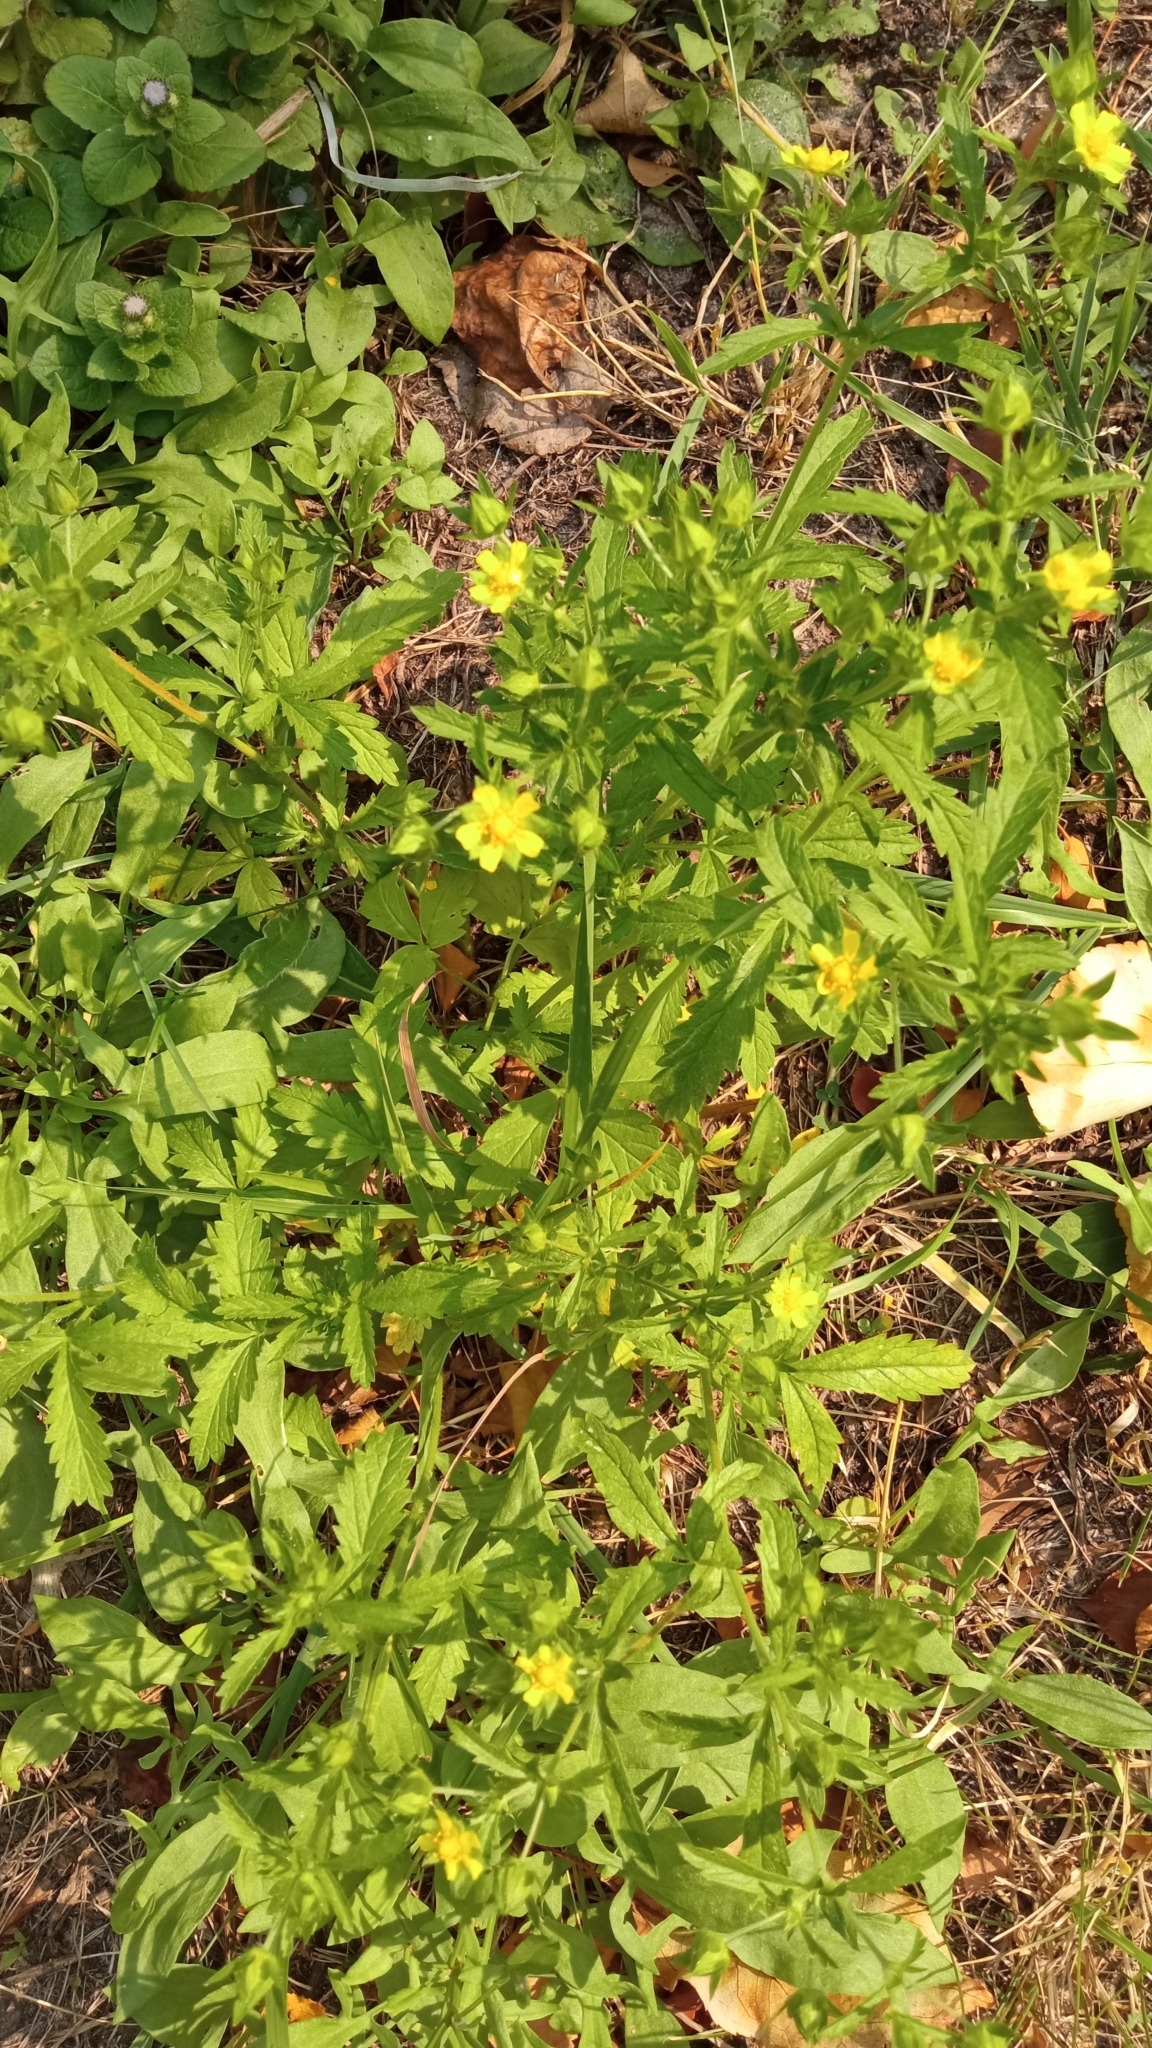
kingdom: Plantae
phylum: Tracheophyta
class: Magnoliopsida
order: Rosales
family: Rosaceae
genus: Potentilla
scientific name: Potentilla norvegica
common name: Ternate-leaved cinquefoil
